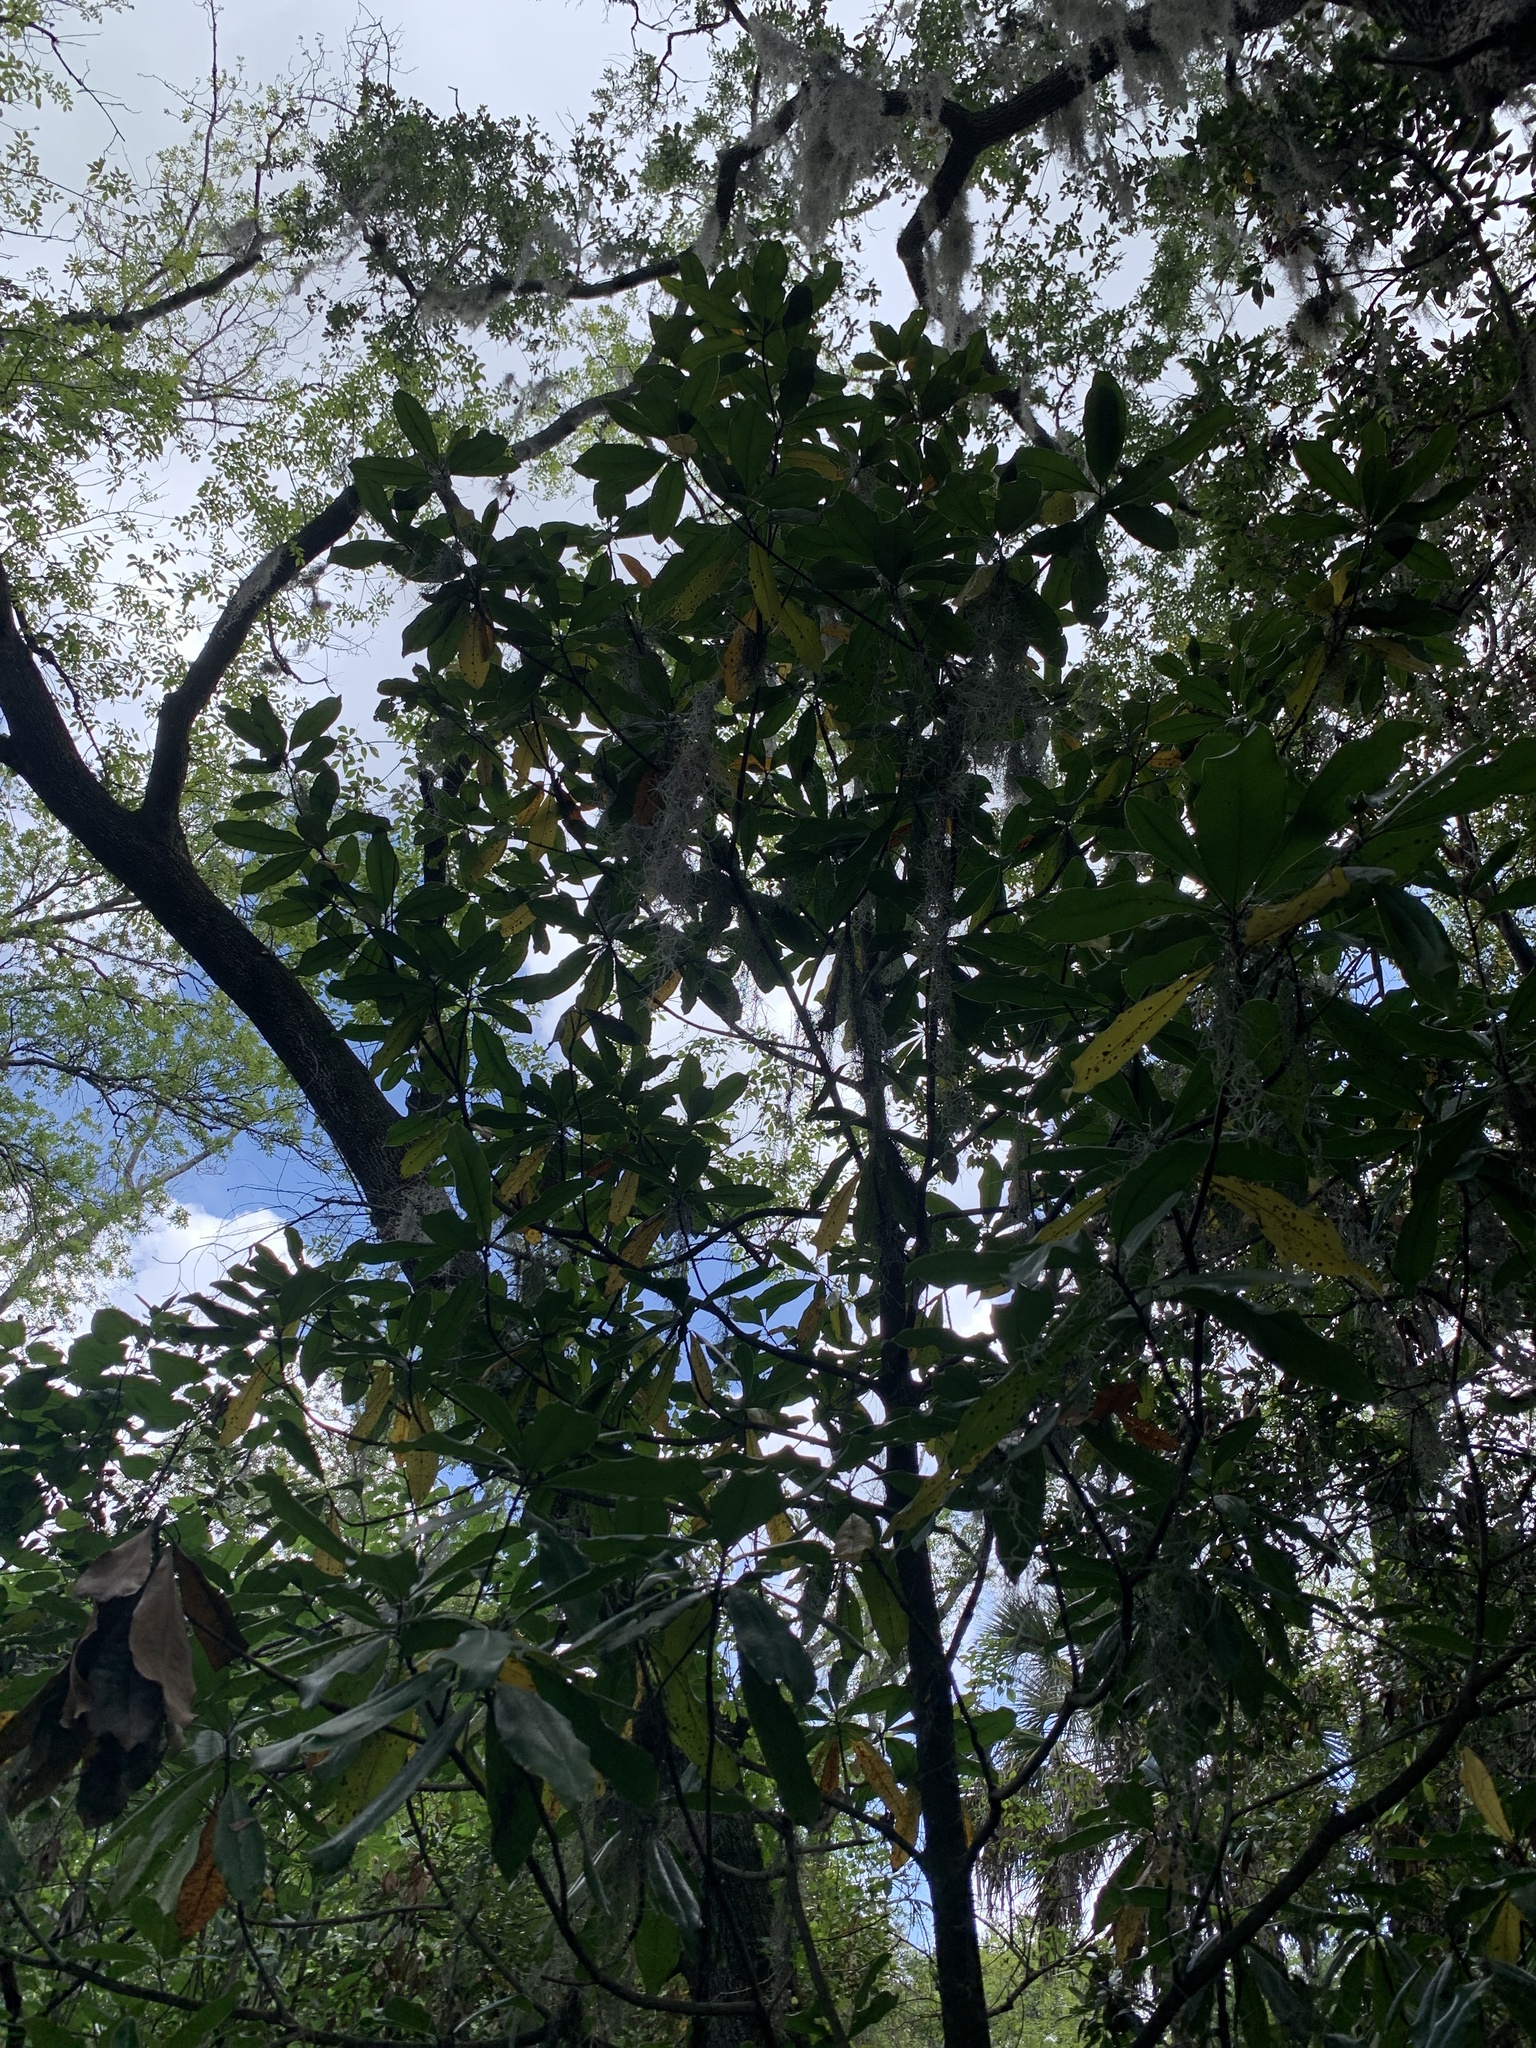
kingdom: Plantae
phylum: Tracheophyta
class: Magnoliopsida
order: Magnoliales
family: Magnoliaceae
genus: Magnolia
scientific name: Magnolia grandiflora
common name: Southern magnolia
